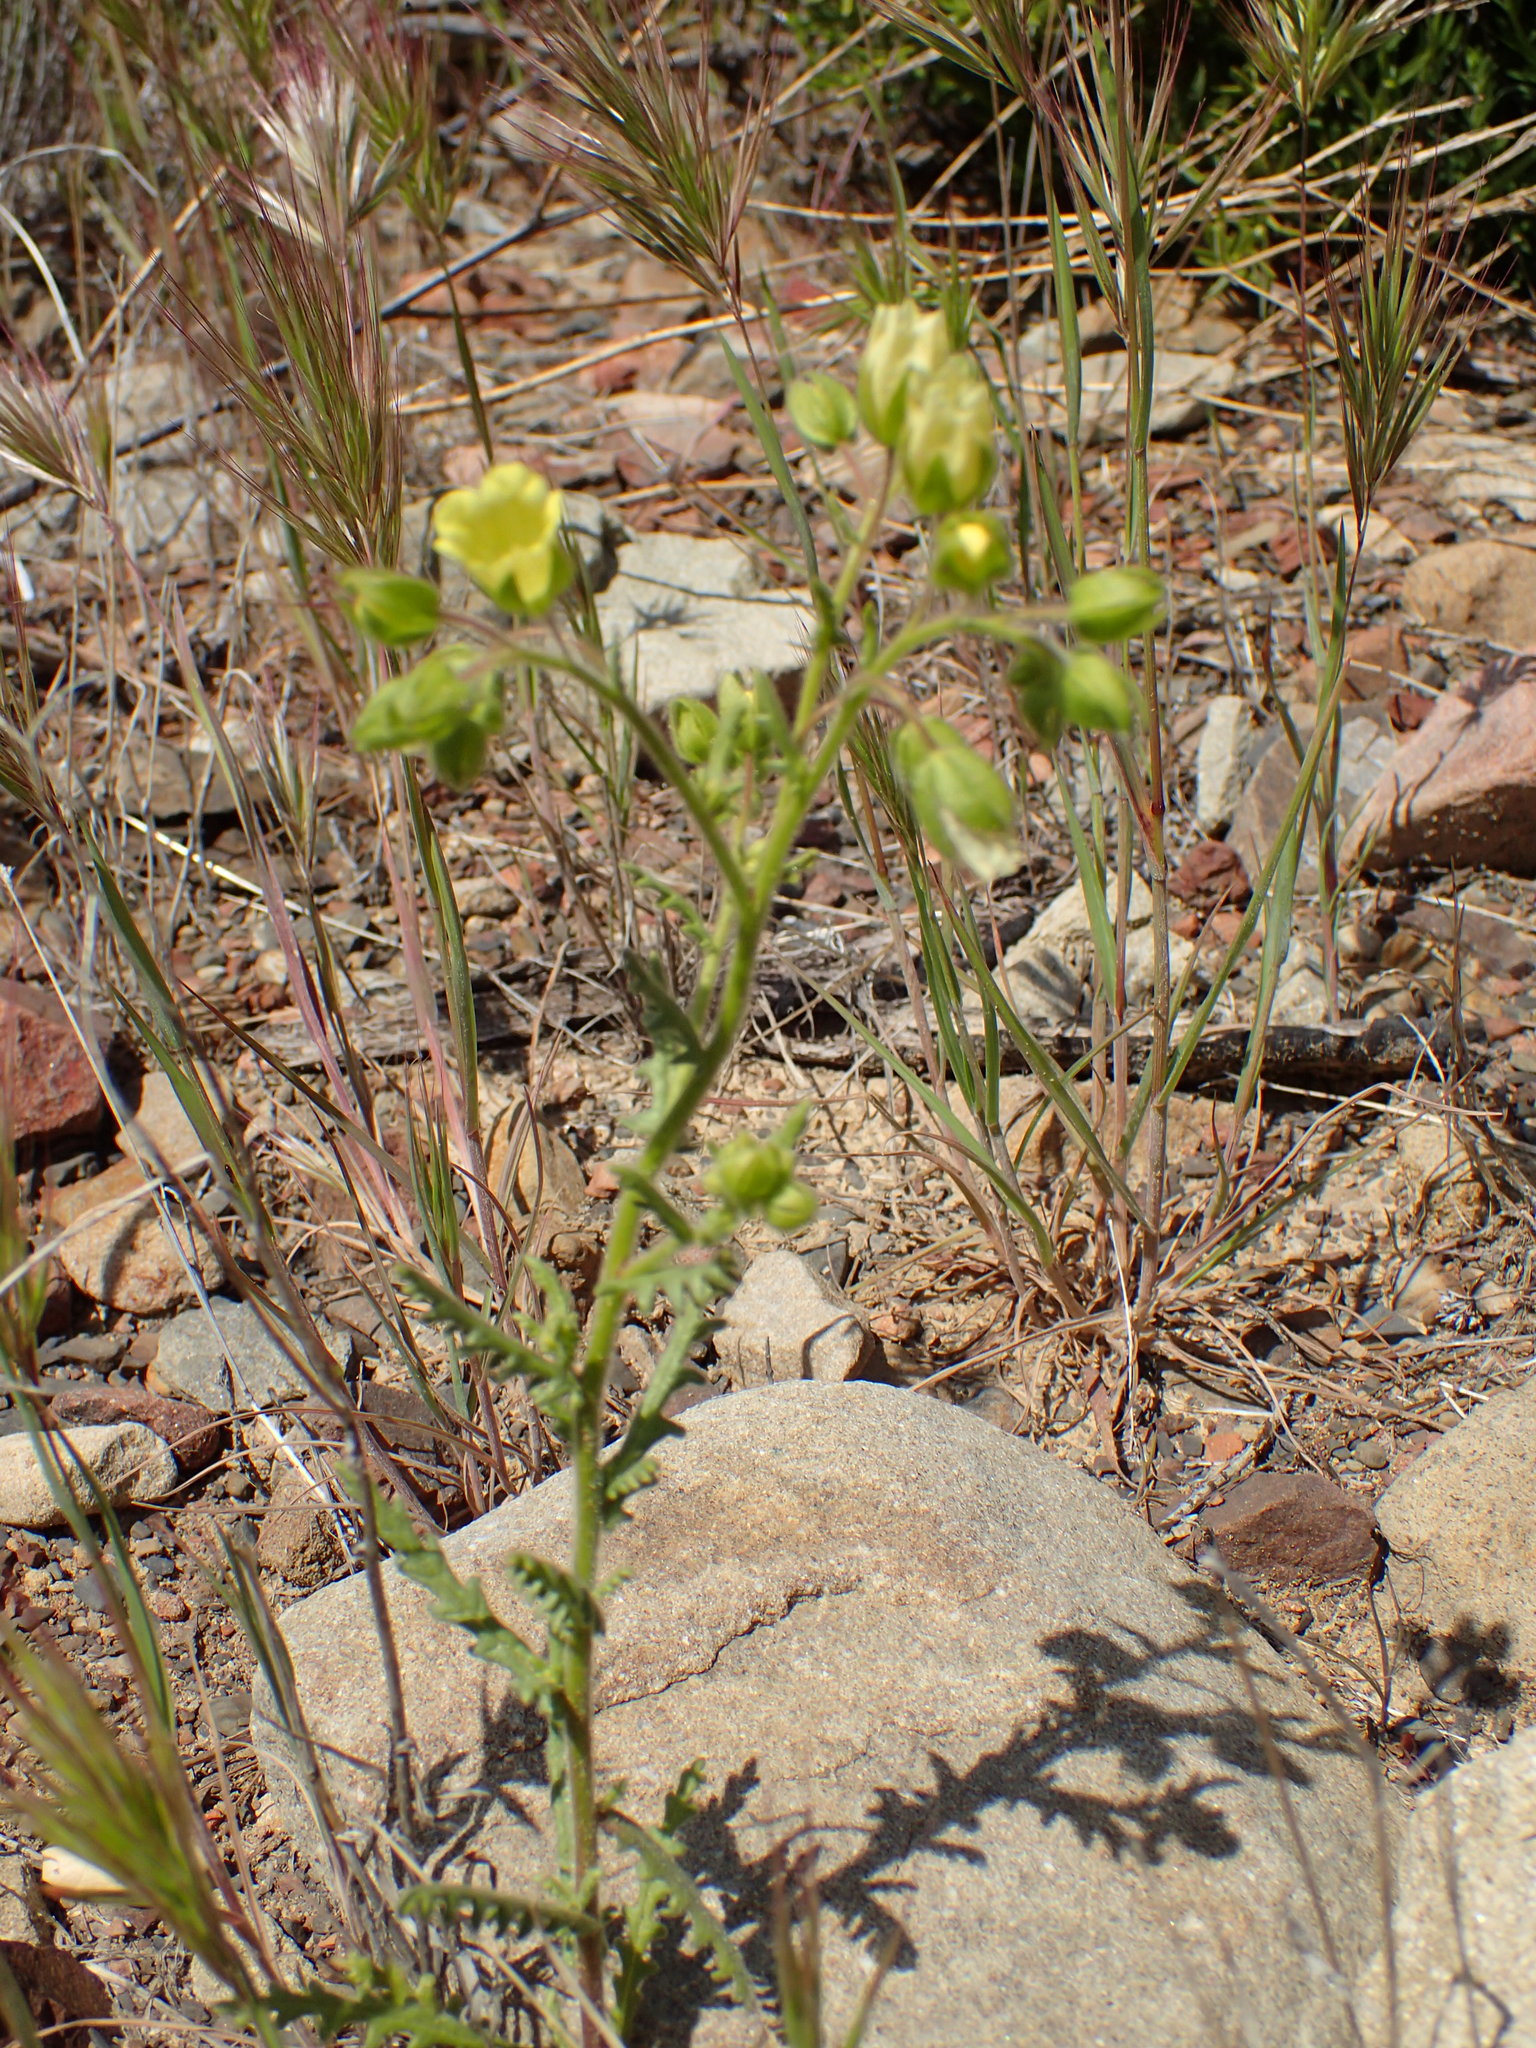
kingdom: Plantae
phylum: Tracheophyta
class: Magnoliopsida
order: Boraginales
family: Hydrophyllaceae
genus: Emmenanthe
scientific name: Emmenanthe penduliflora
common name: Whispering-bells
